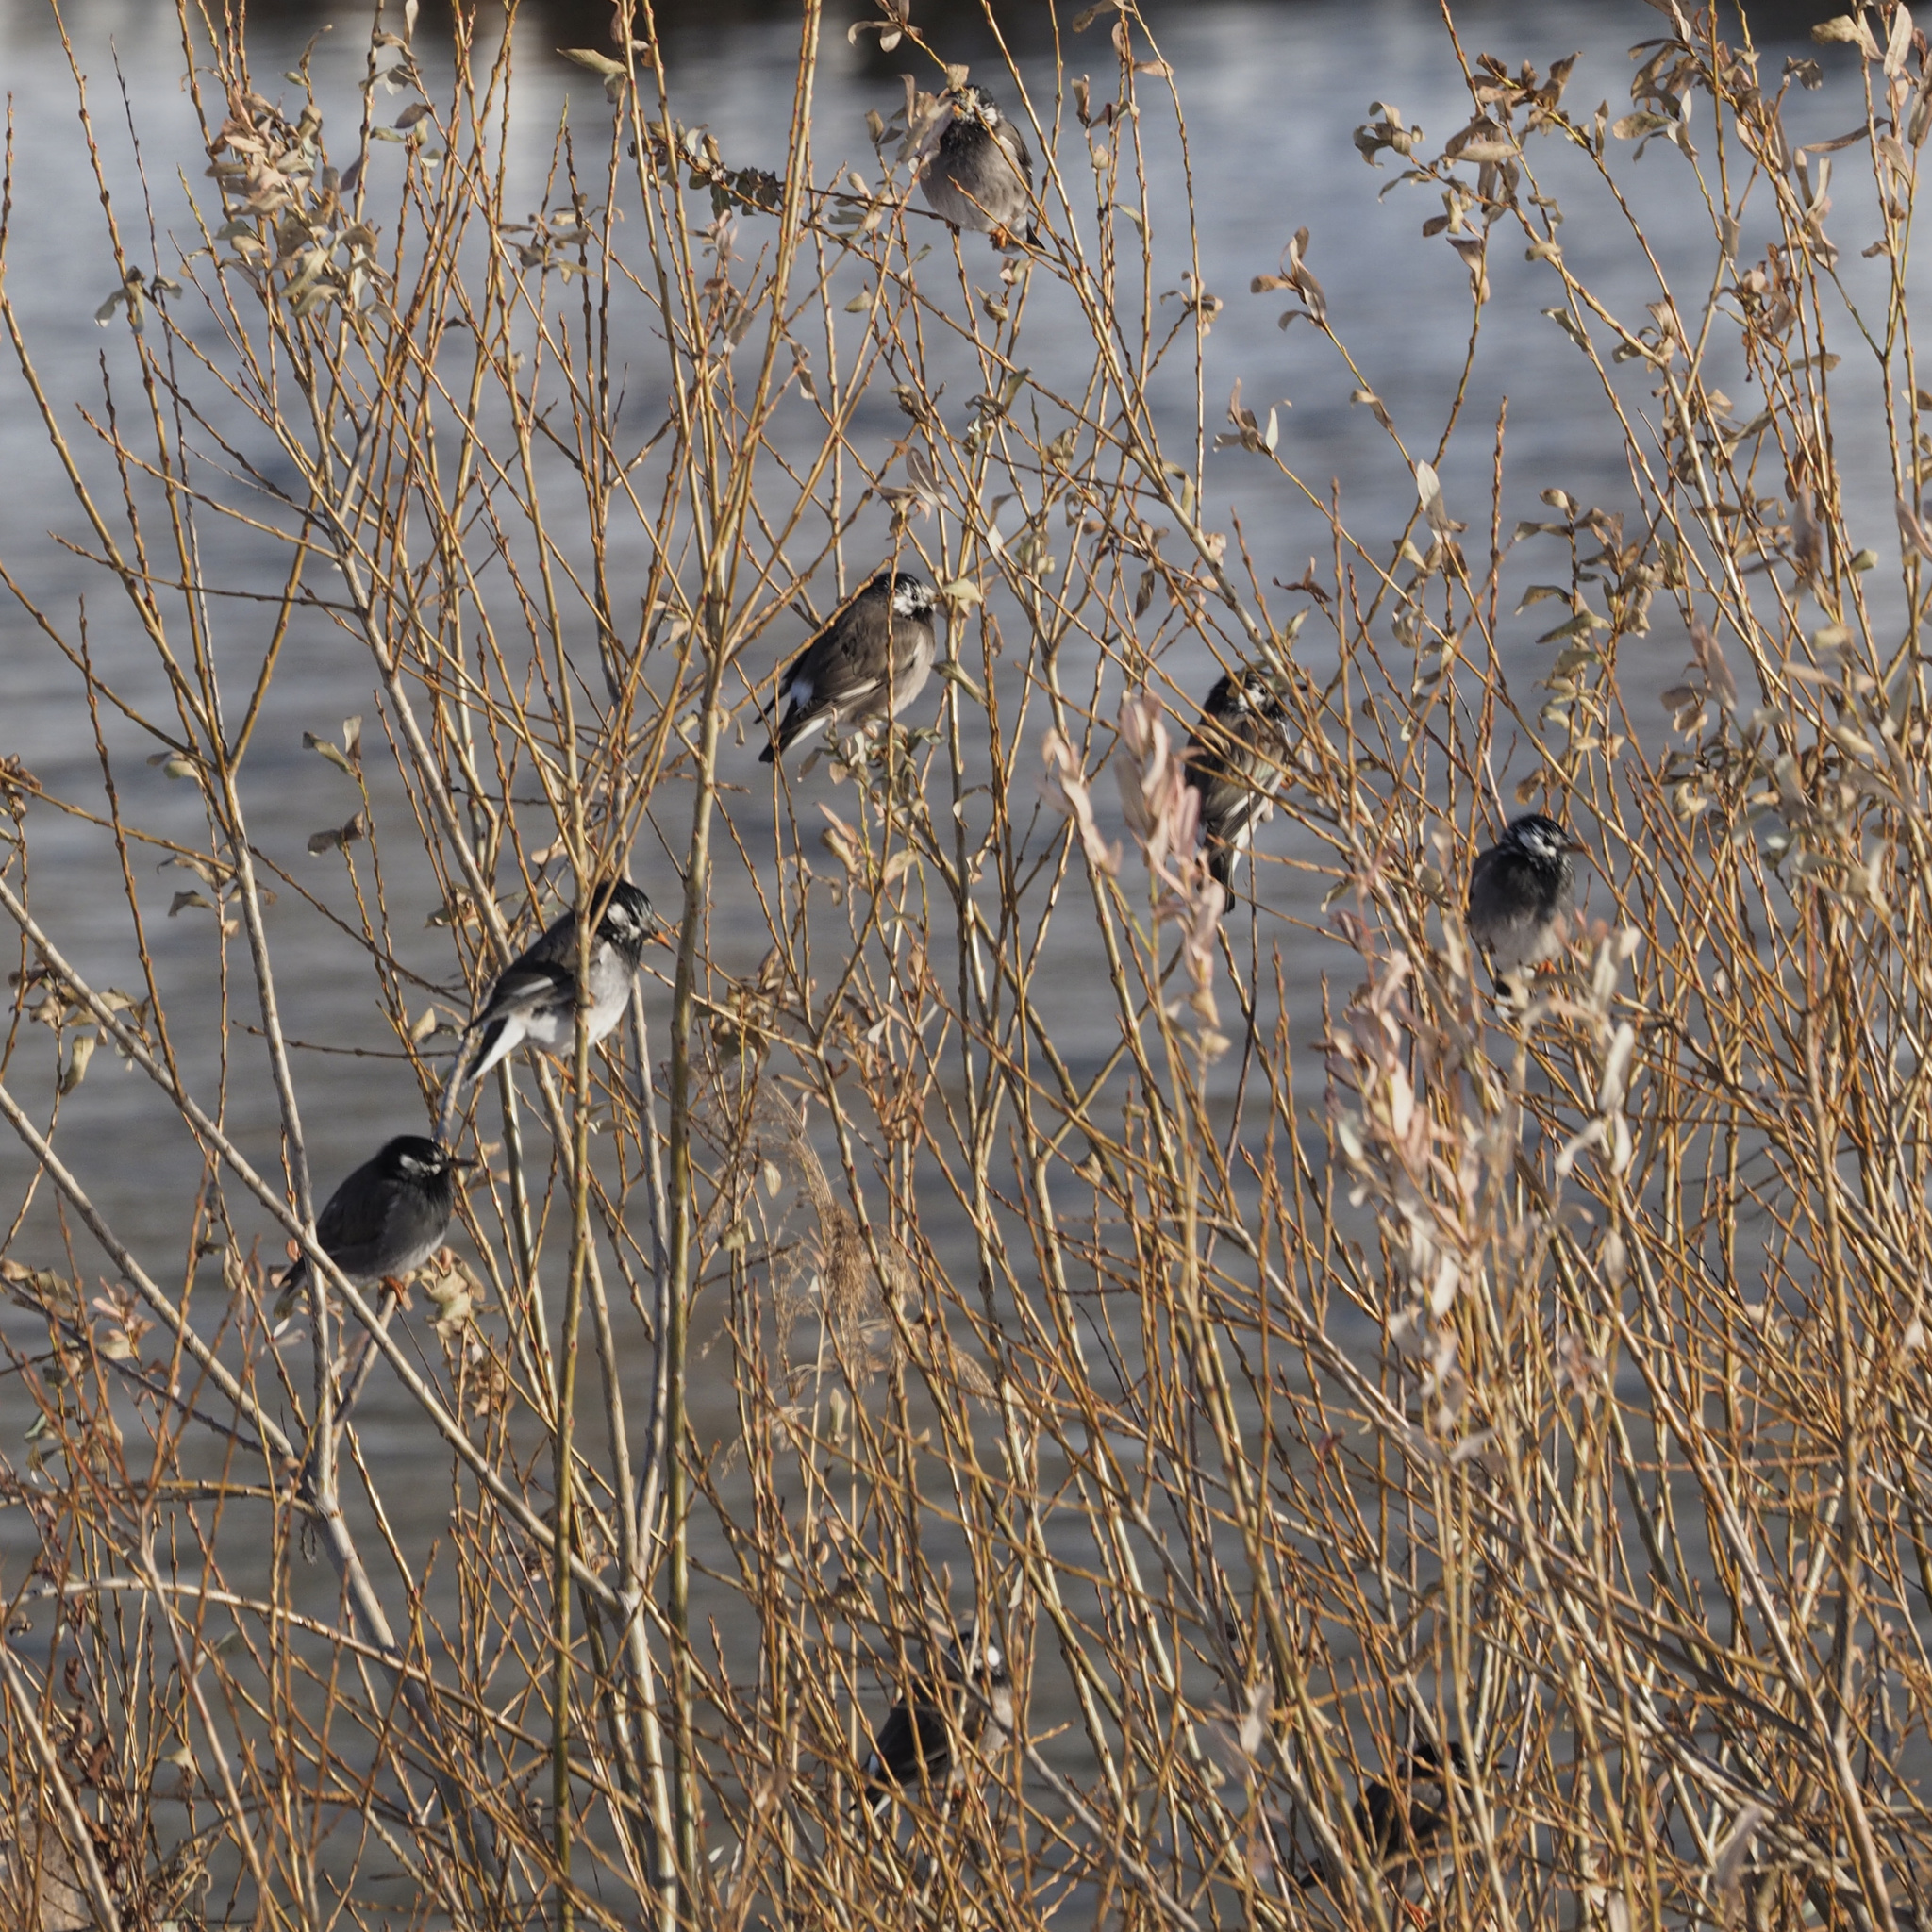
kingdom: Animalia
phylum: Chordata
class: Aves
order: Passeriformes
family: Sturnidae
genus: Spodiopsar
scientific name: Spodiopsar cineraceus
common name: White-cheeked starling
